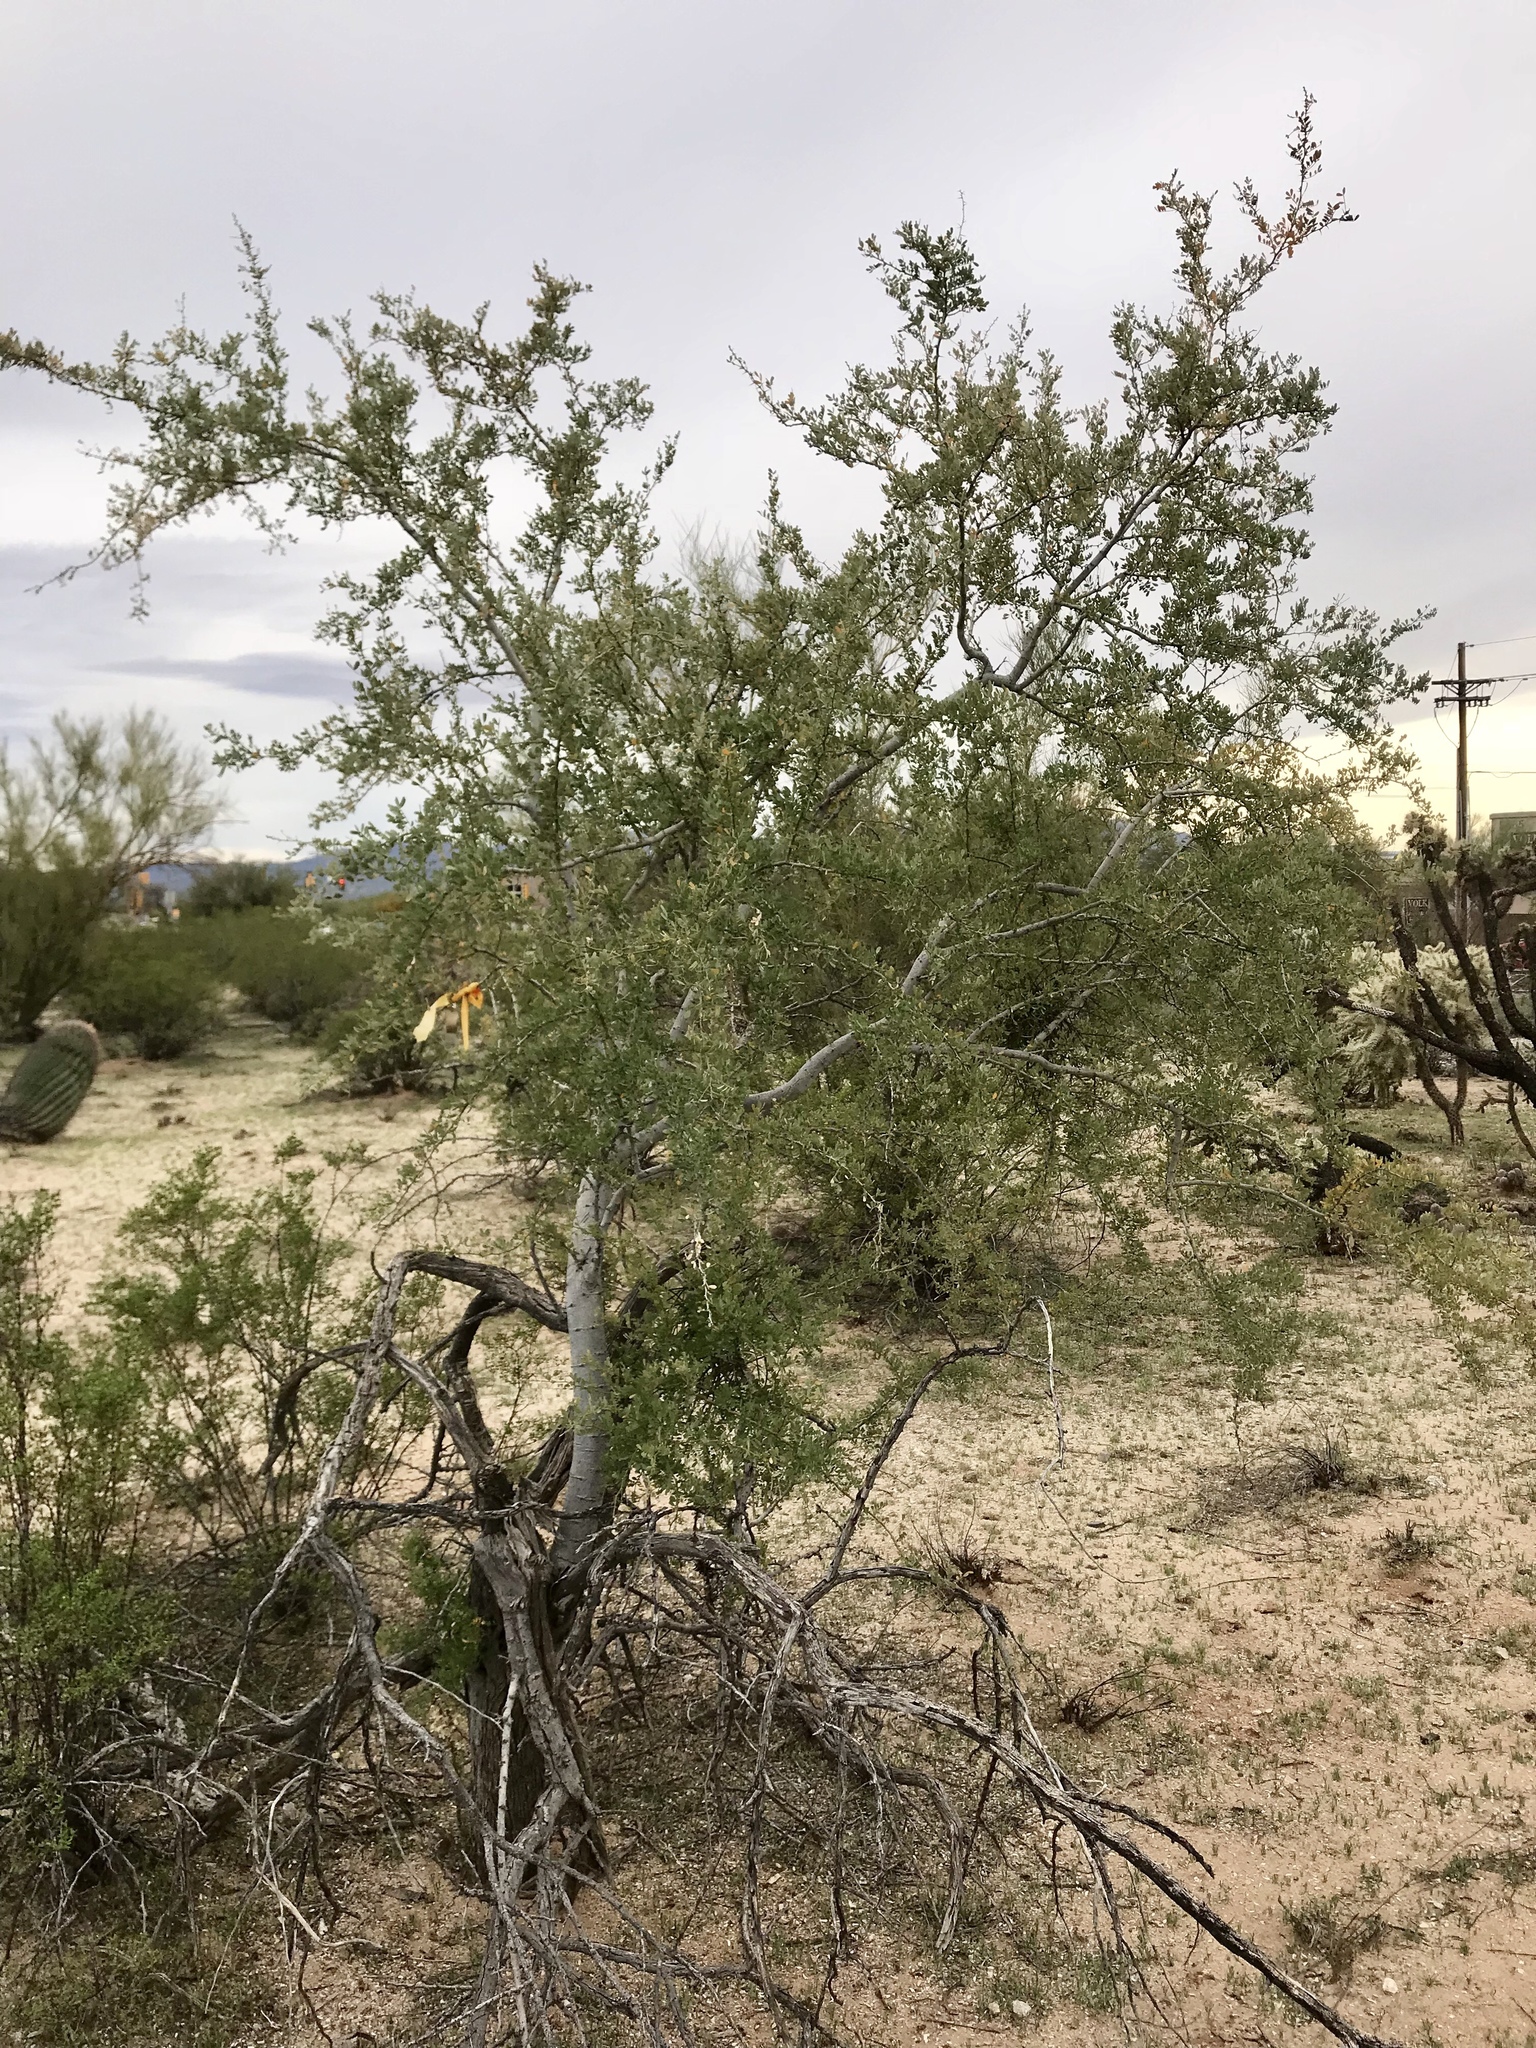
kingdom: Plantae
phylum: Tracheophyta
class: Magnoliopsida
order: Fabales
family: Fabaceae
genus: Olneya
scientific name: Olneya tesota
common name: Desert ironwood
